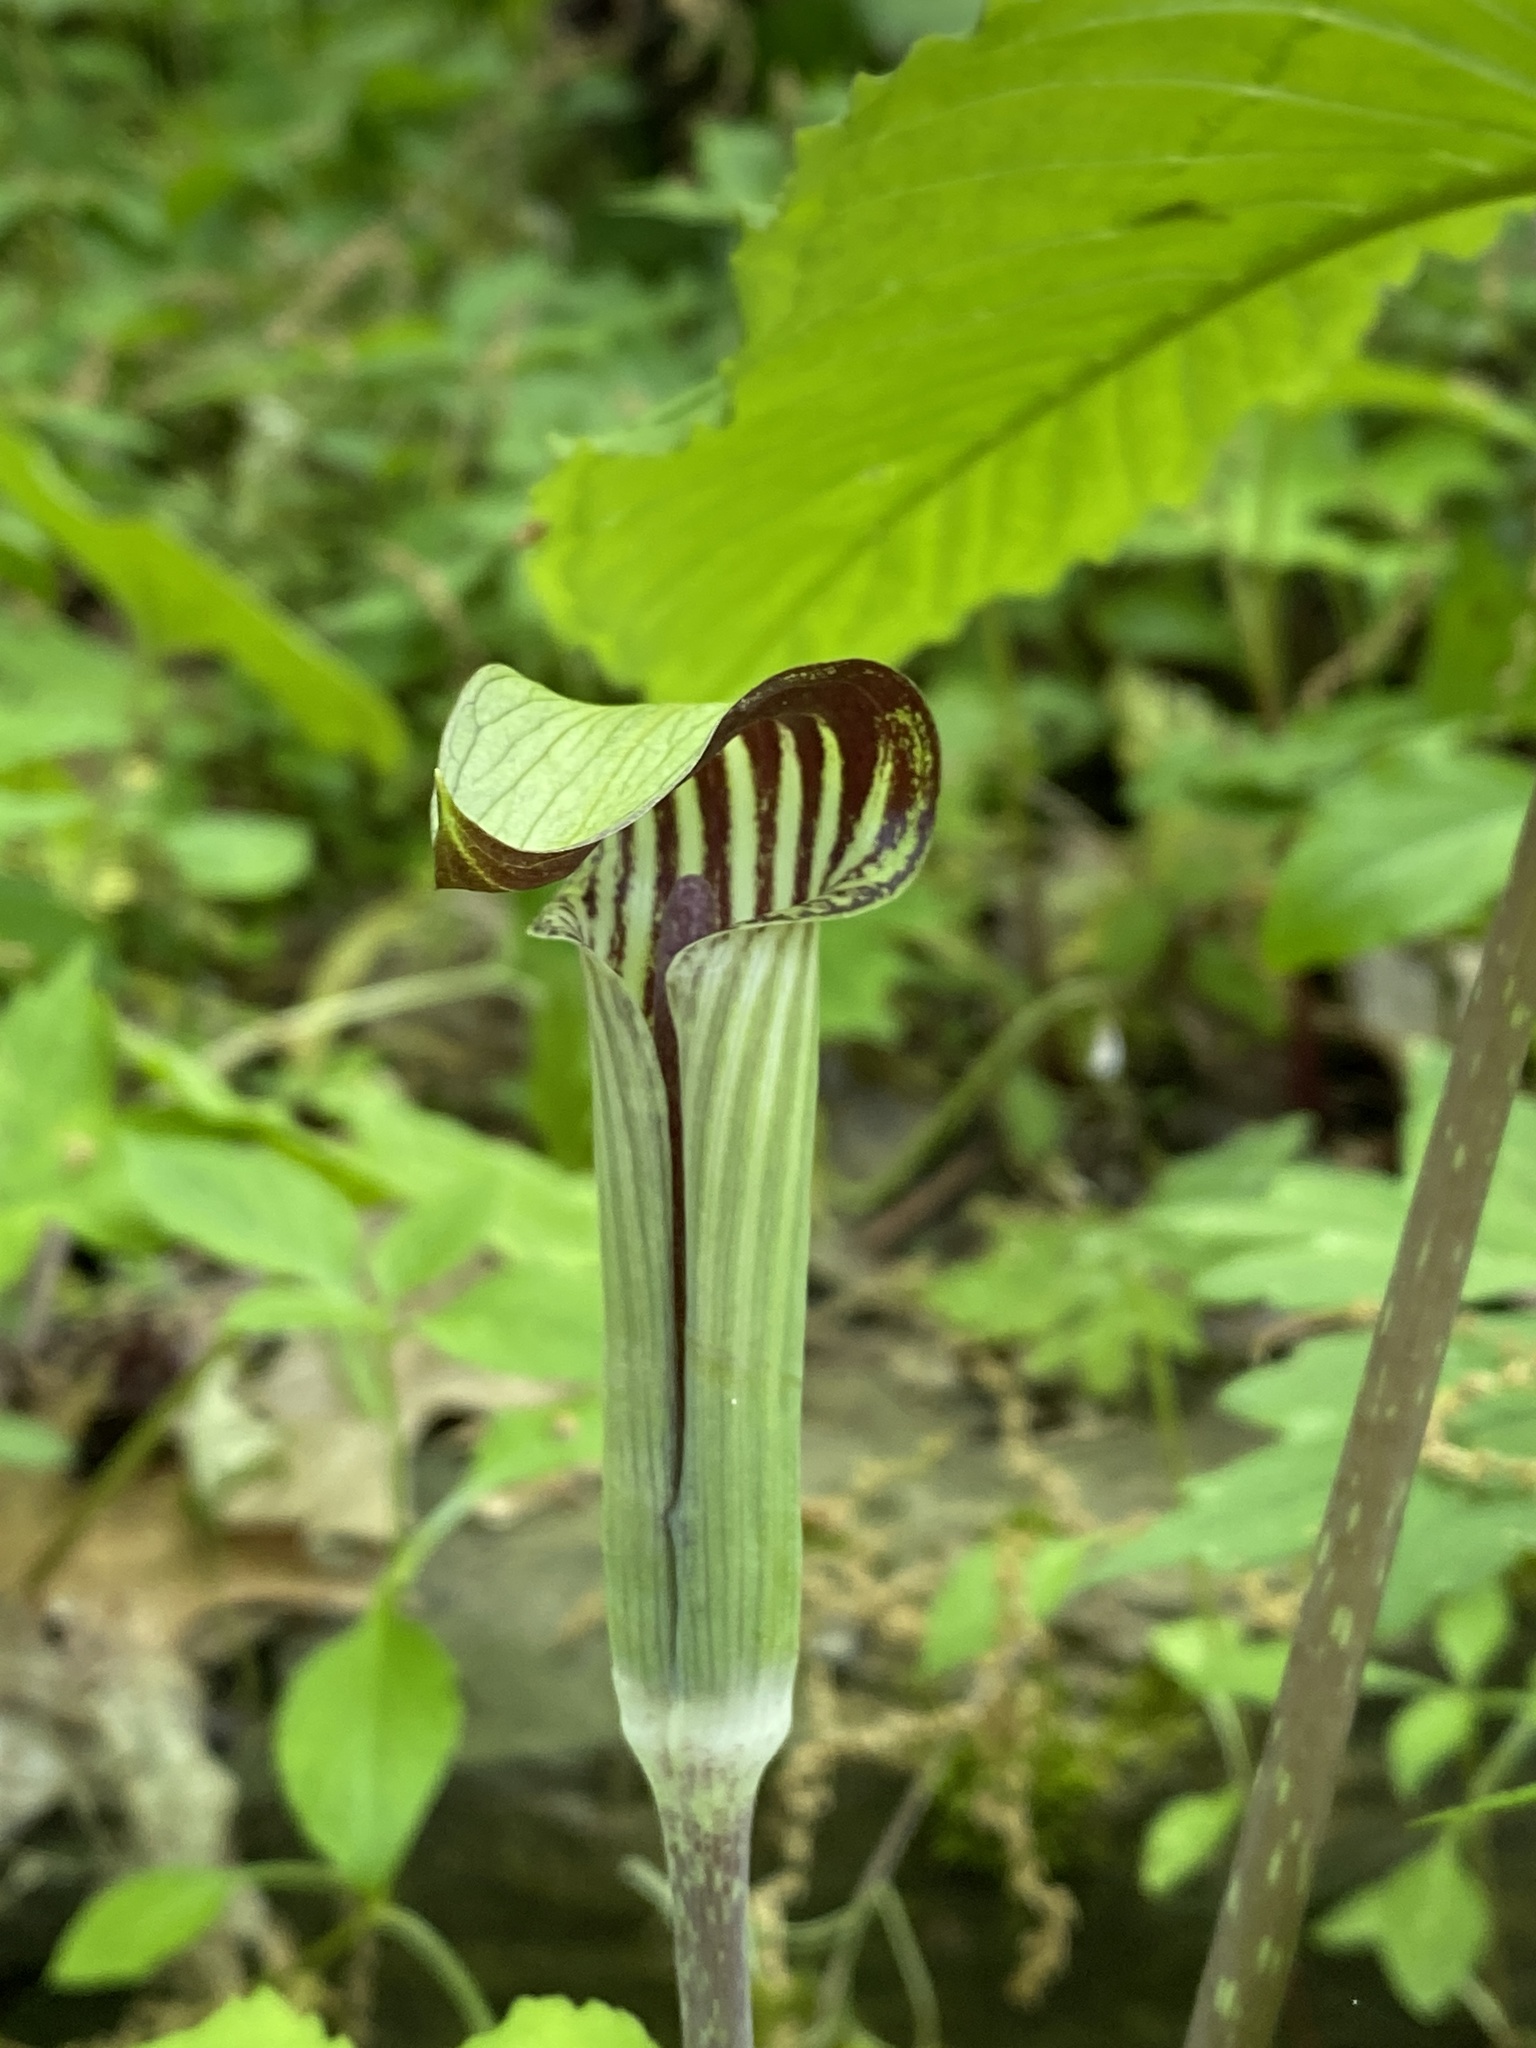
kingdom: Plantae
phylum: Tracheophyta
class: Liliopsida
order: Alismatales
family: Araceae
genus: Arisaema
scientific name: Arisaema triphyllum
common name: Jack-in-the-pulpit
